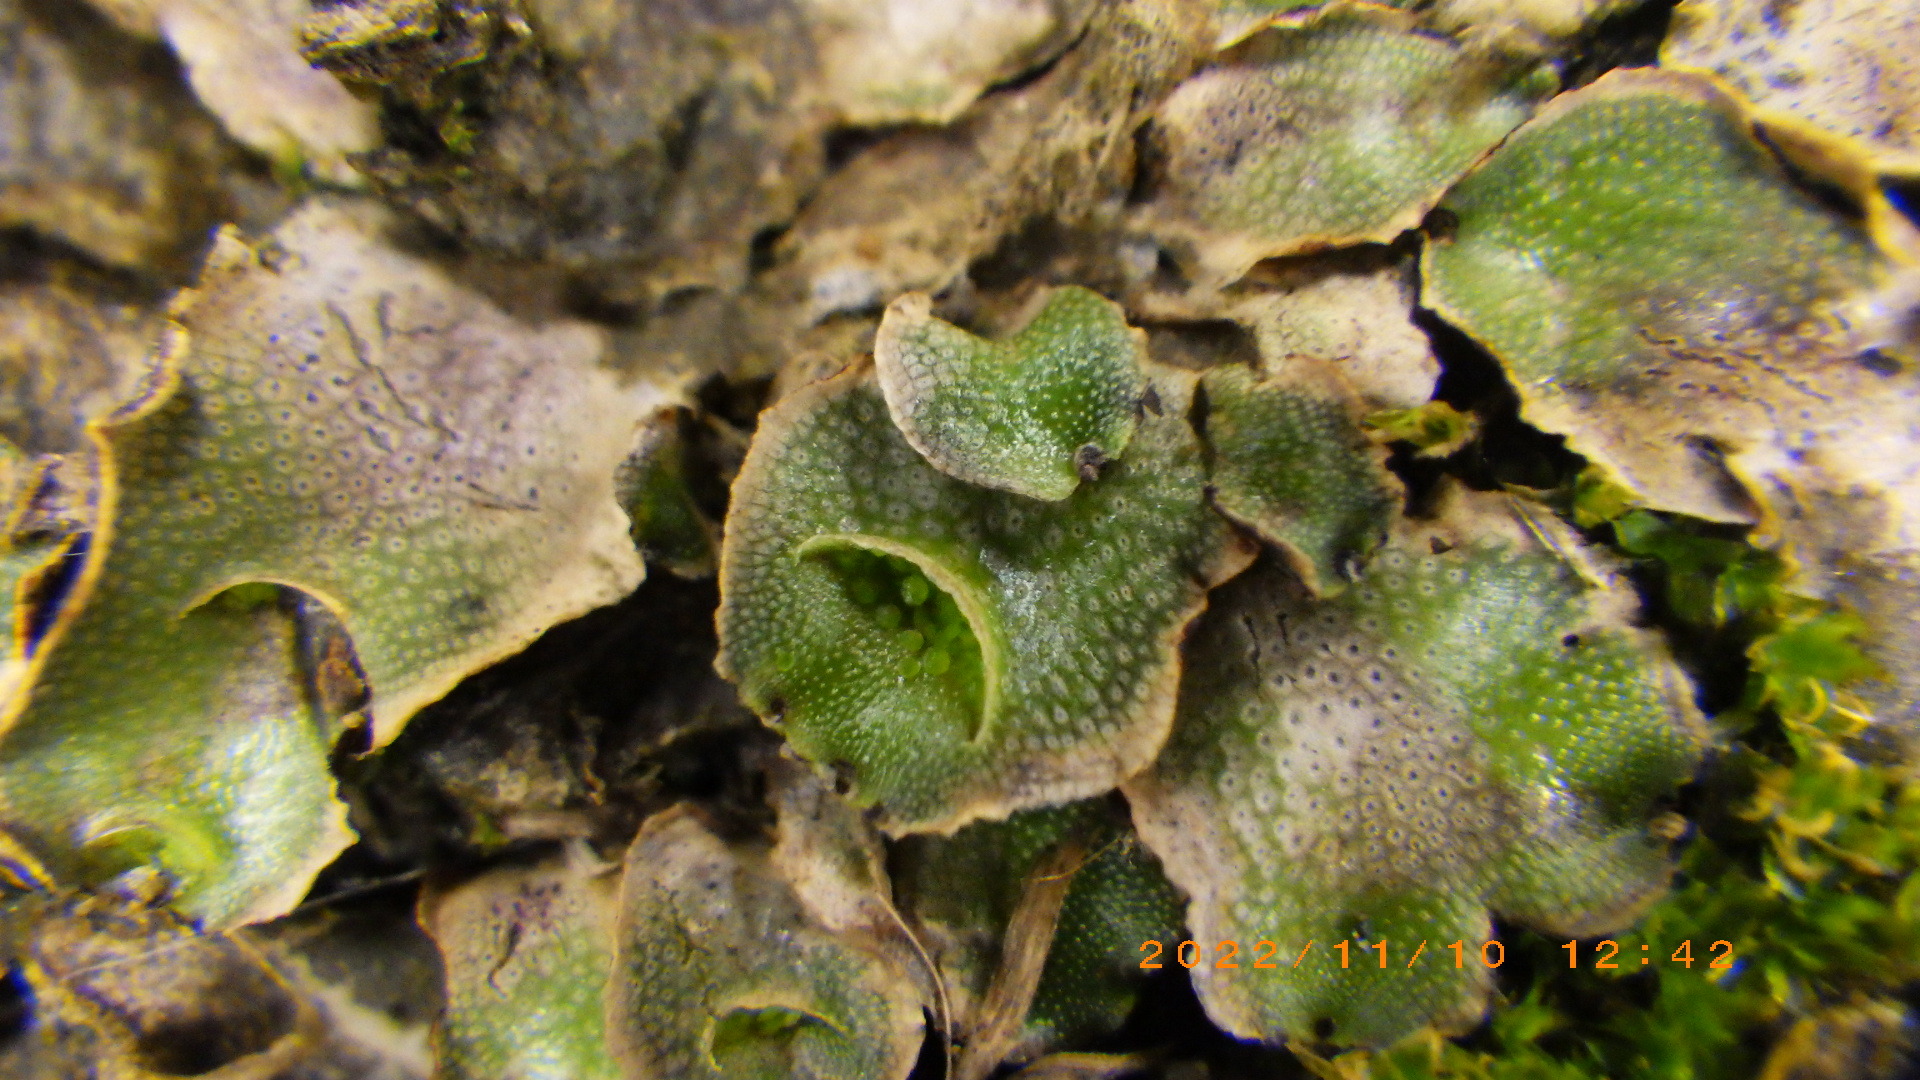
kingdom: Plantae
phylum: Marchantiophyta
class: Marchantiopsida
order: Lunulariales
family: Lunulariaceae
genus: Lunularia
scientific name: Lunularia cruciata
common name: Crescent-cup liverwort
